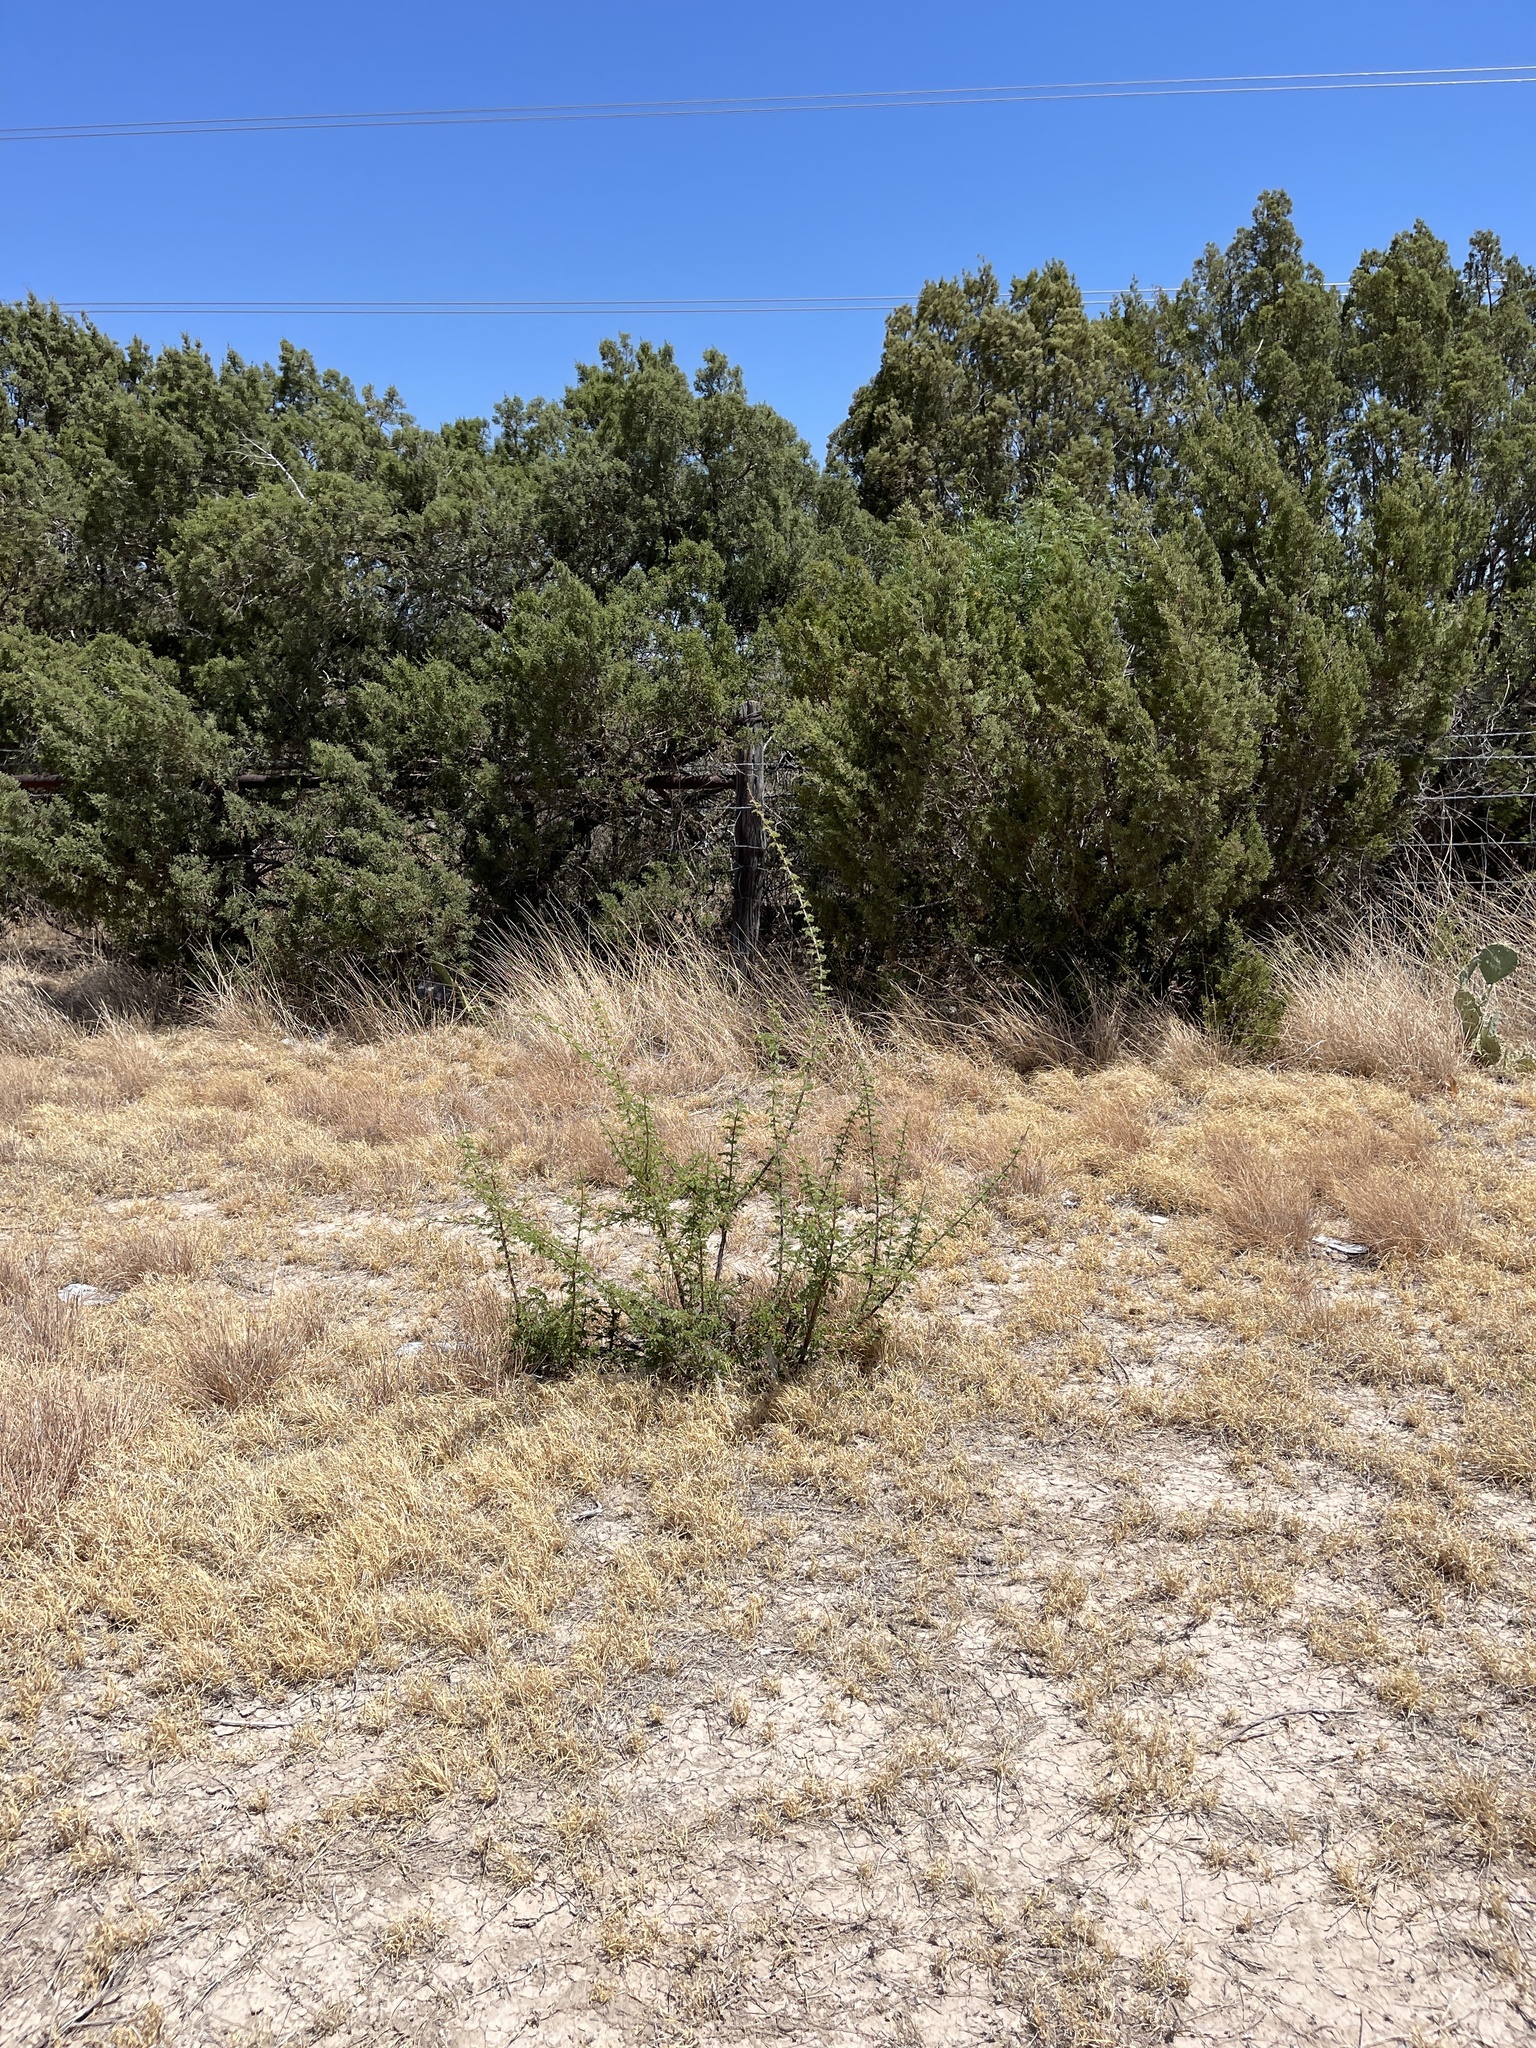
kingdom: Plantae
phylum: Tracheophyta
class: Magnoliopsida
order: Fabales
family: Fabaceae
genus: Senegalia
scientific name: Senegalia greggii
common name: Texas-mimosa
